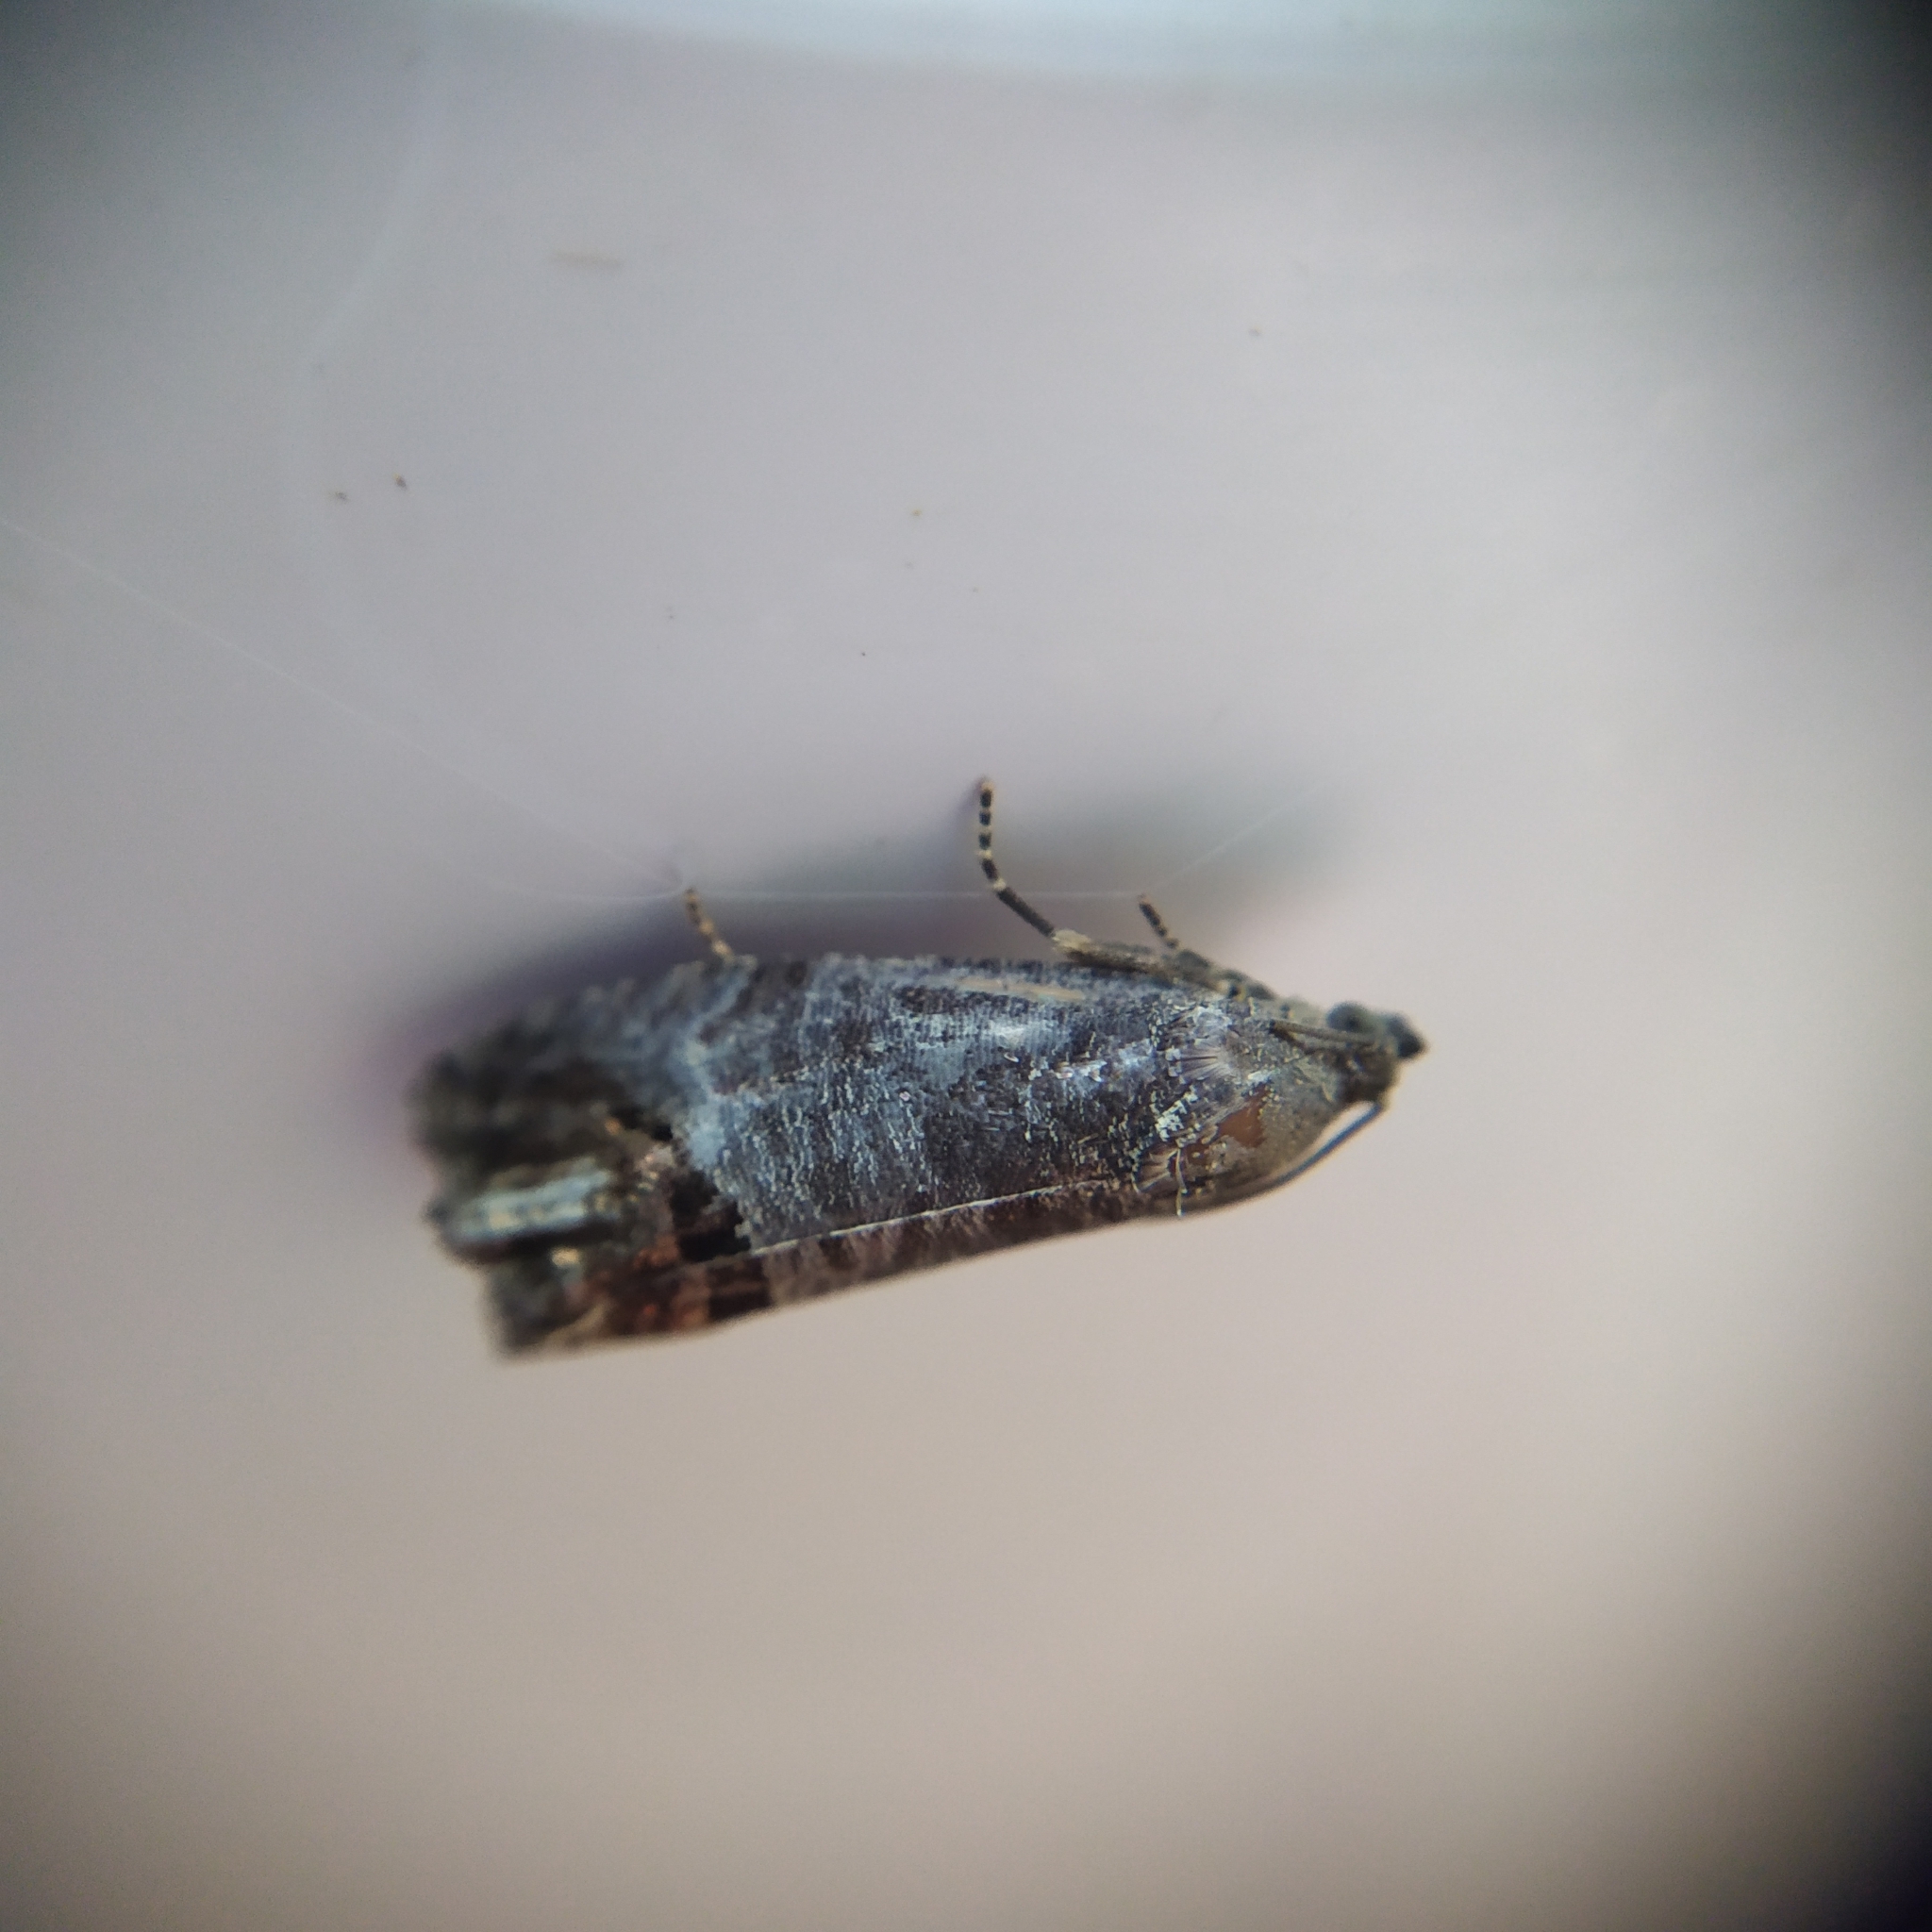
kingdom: Animalia
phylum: Arthropoda
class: Insecta
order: Lepidoptera
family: Tortricidae
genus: Cydia
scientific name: Cydia pomonella
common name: Codling moth
